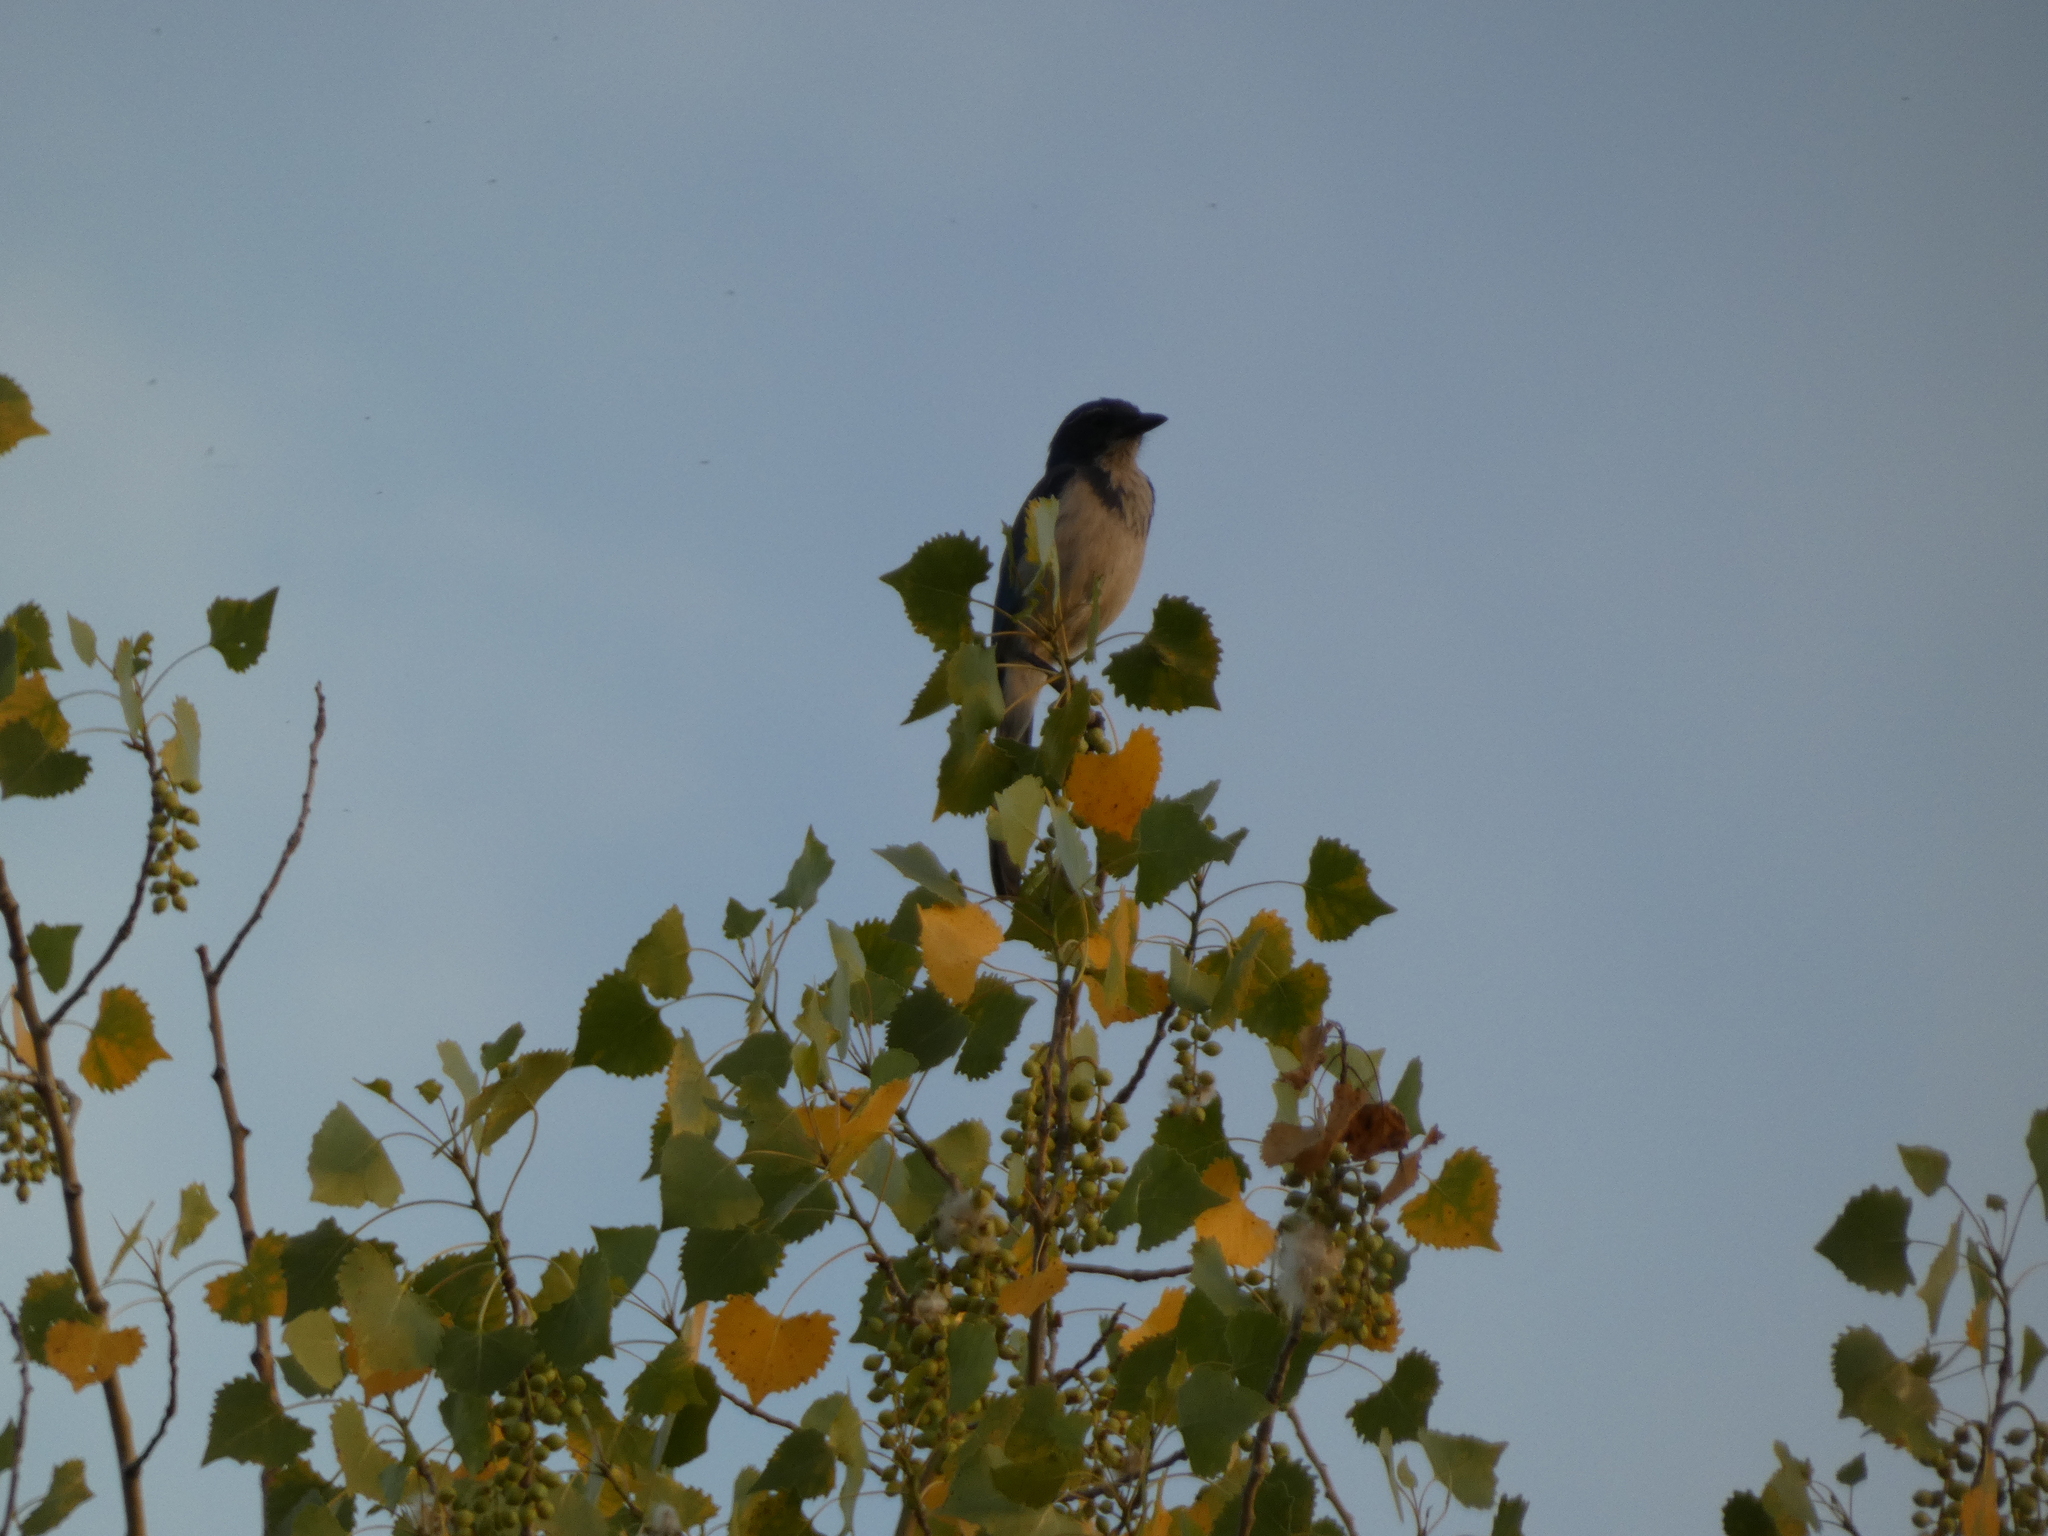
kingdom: Animalia
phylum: Chordata
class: Aves
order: Passeriformes
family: Corvidae
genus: Aphelocoma
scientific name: Aphelocoma californica
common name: California scrub-jay
